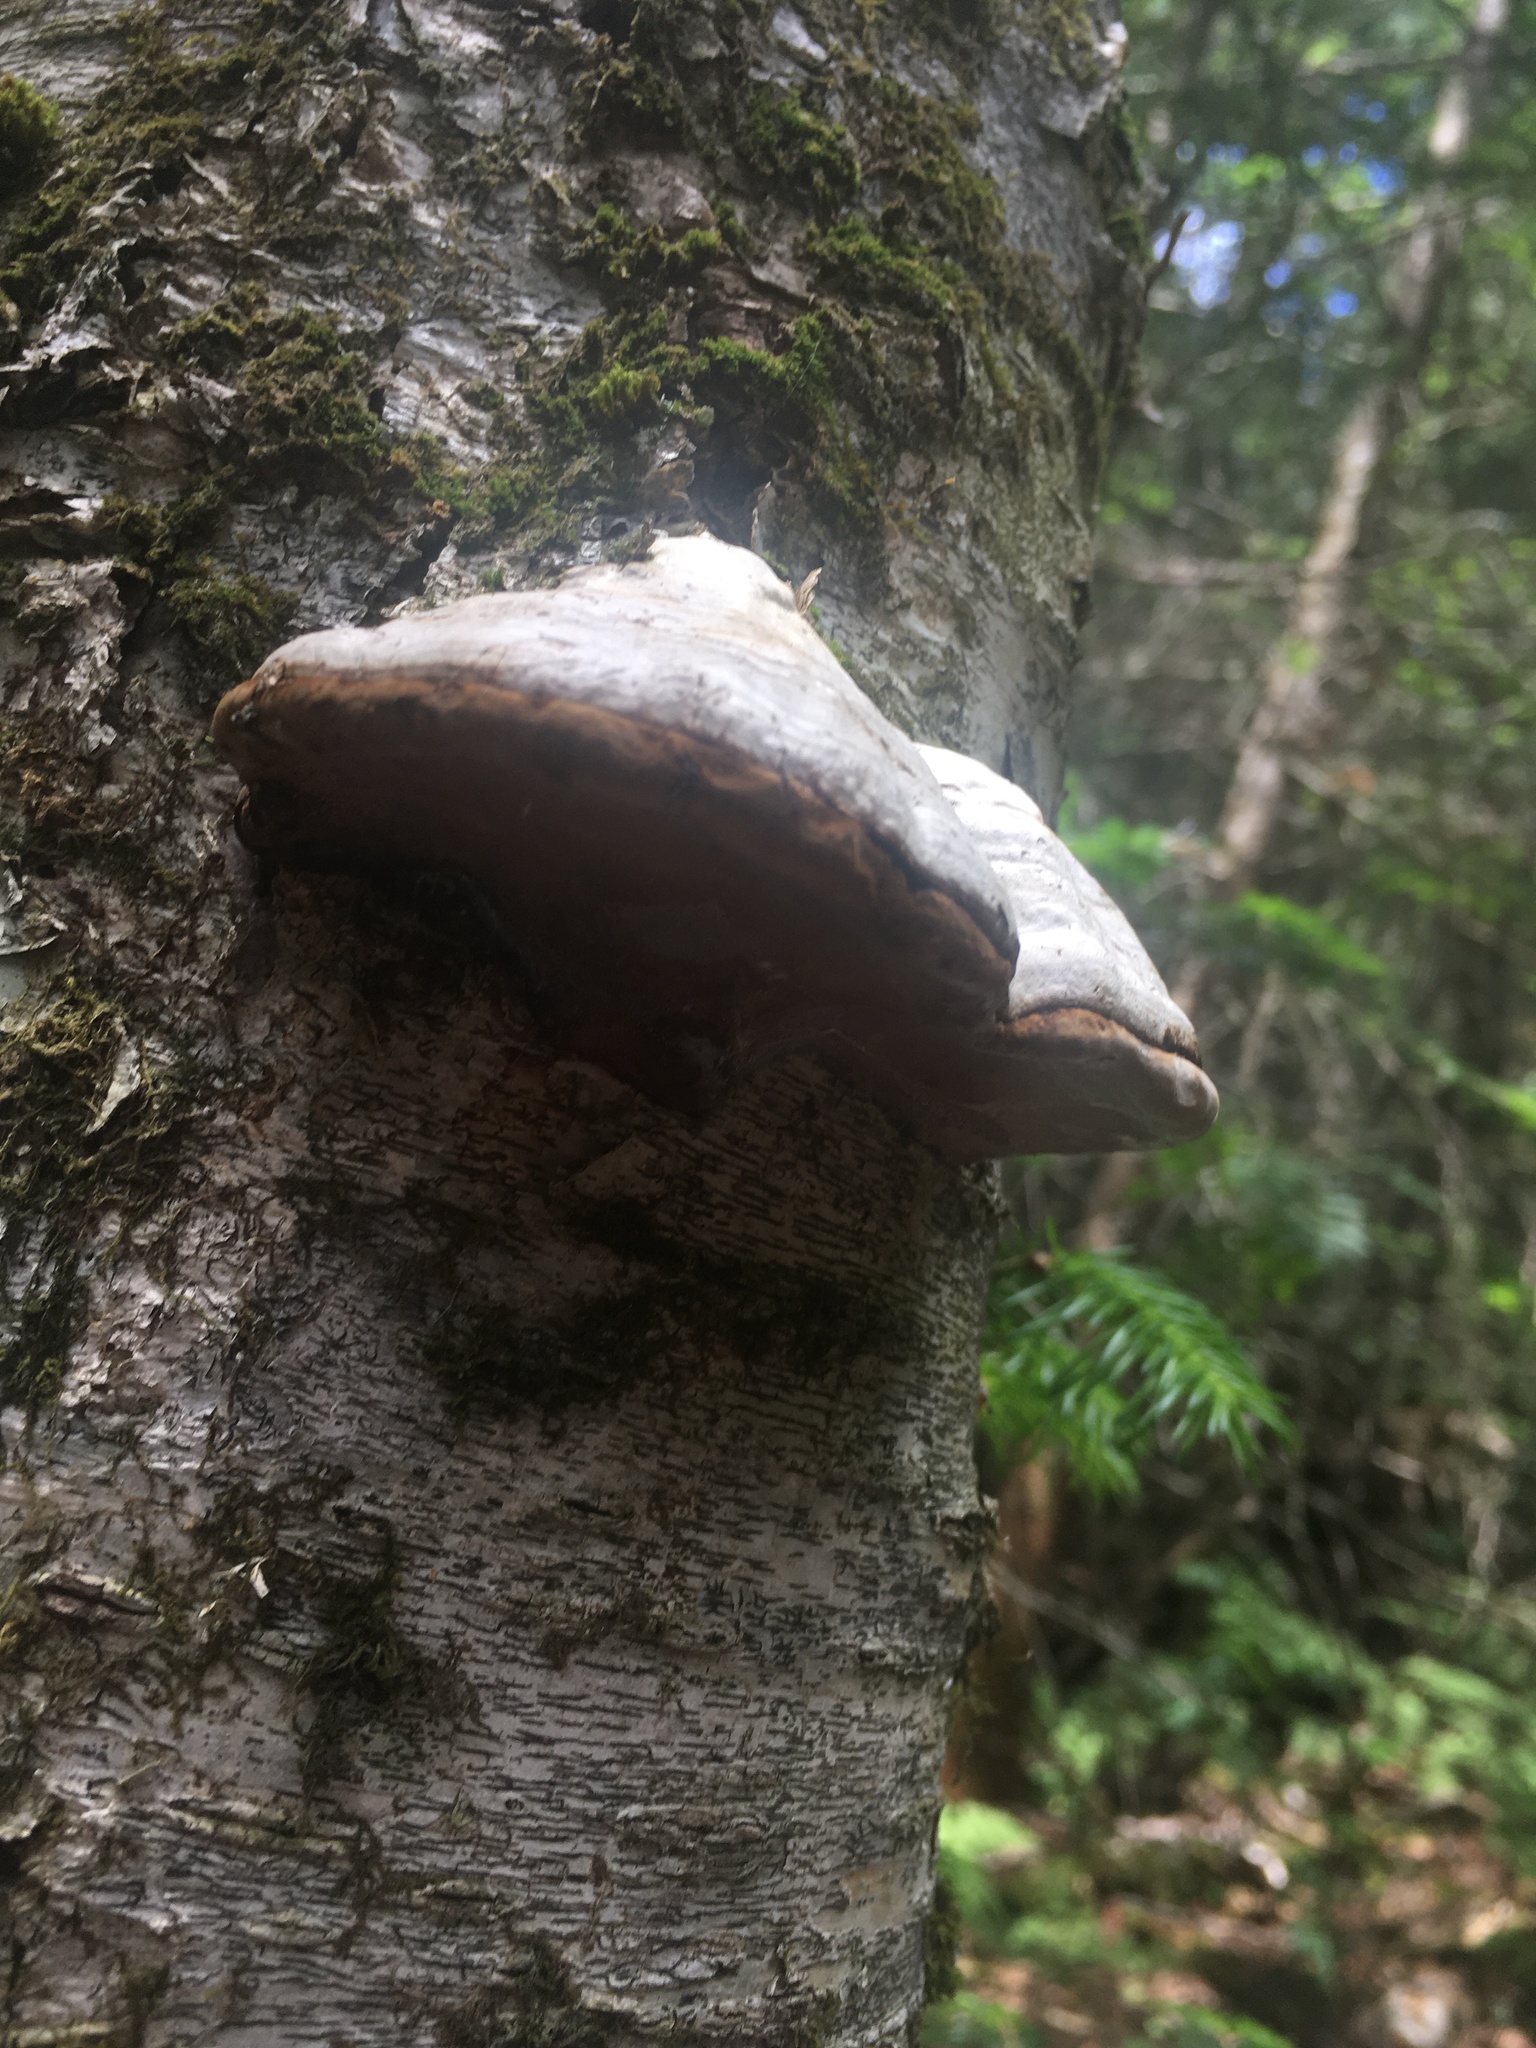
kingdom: Fungi
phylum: Basidiomycota
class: Agaricomycetes
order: Polyporales
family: Polyporaceae
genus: Fomes
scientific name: Fomes fomentarius
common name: Hoof fungus
